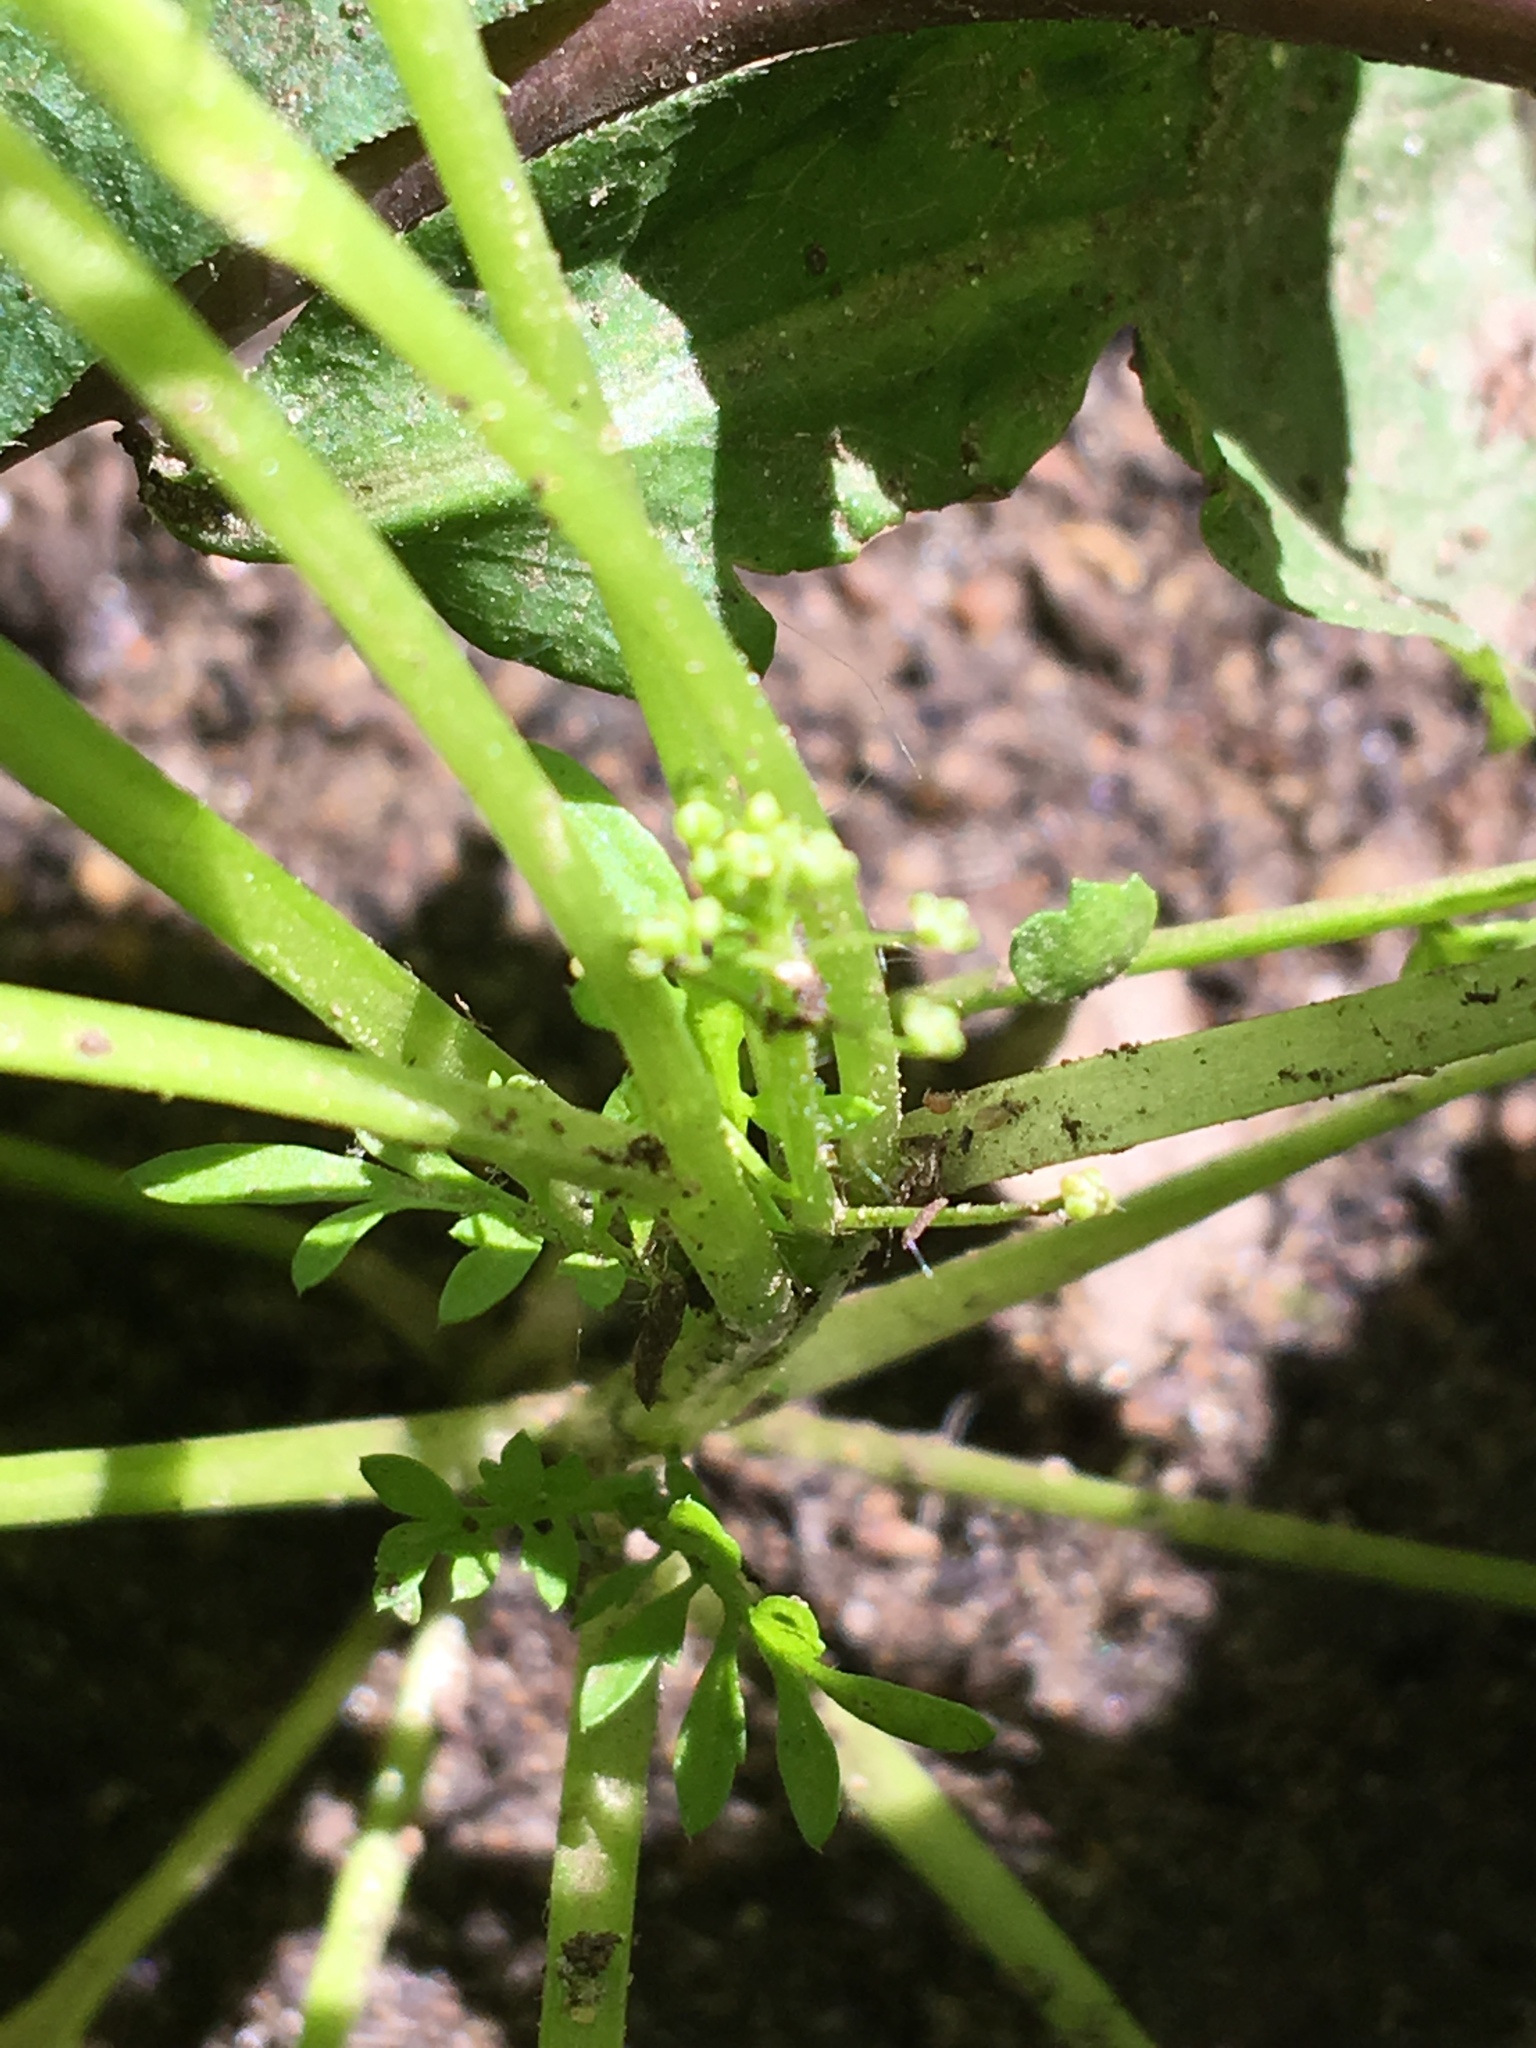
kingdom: Plantae
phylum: Tracheophyta
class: Magnoliopsida
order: Brassicales
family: Brassicaceae
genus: Lepidium
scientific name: Lepidium didymum
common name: Lesser swinecress
